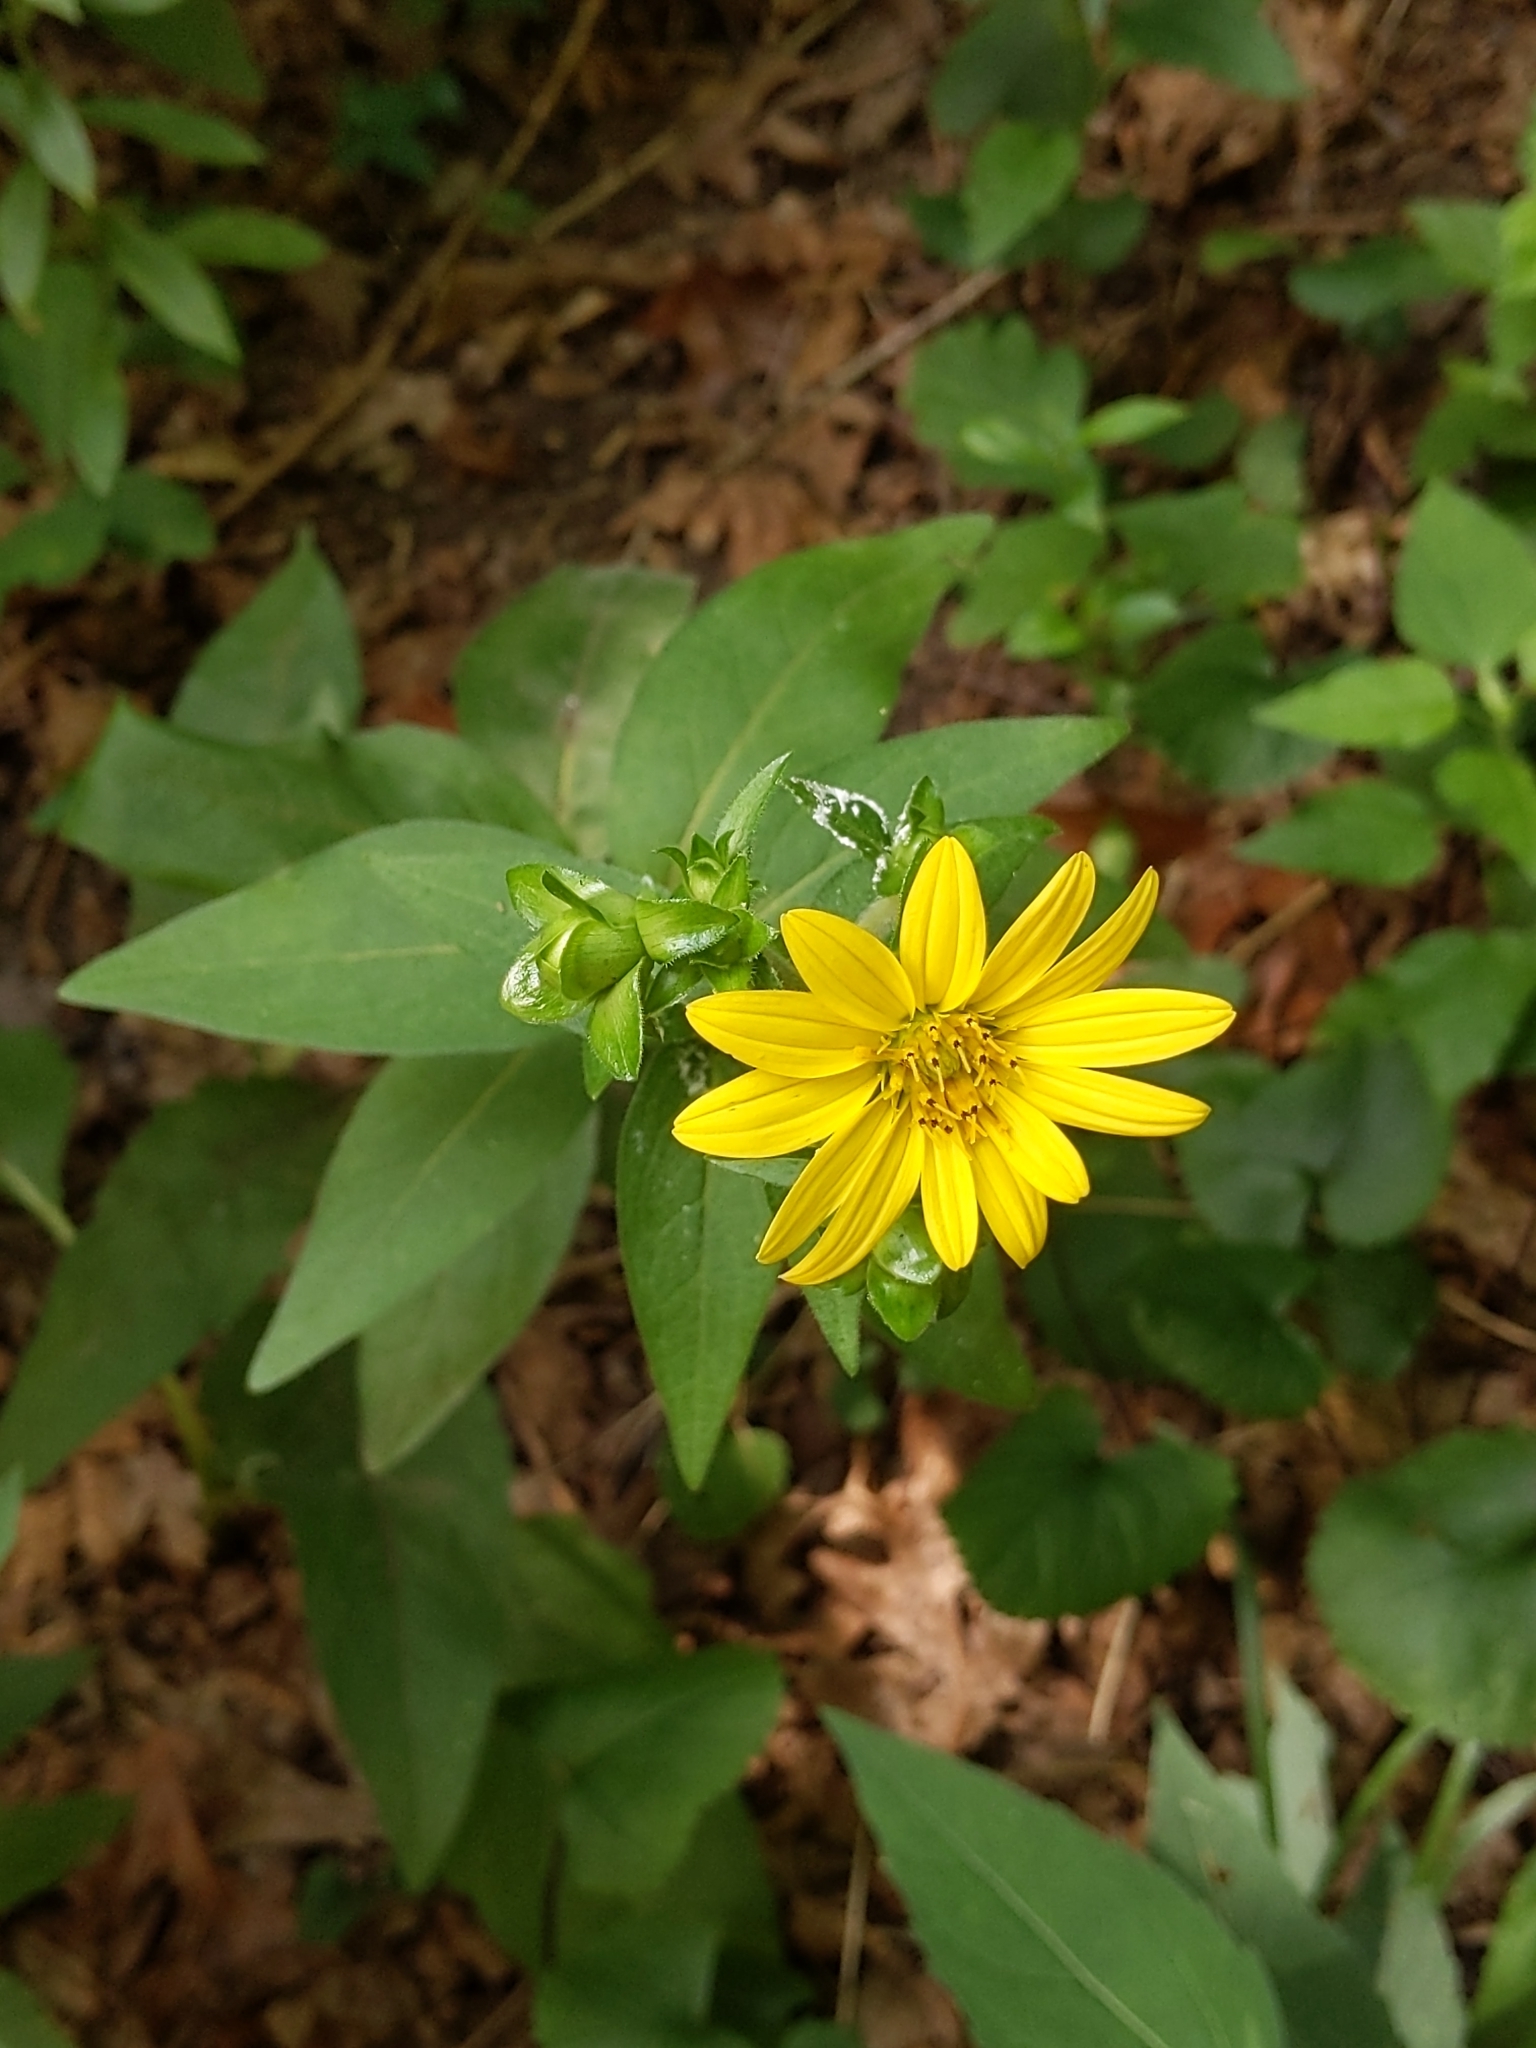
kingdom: Plantae
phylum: Tracheophyta
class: Magnoliopsida
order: Asterales
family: Asteraceae
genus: Silphium
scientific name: Silphium asteriscus
